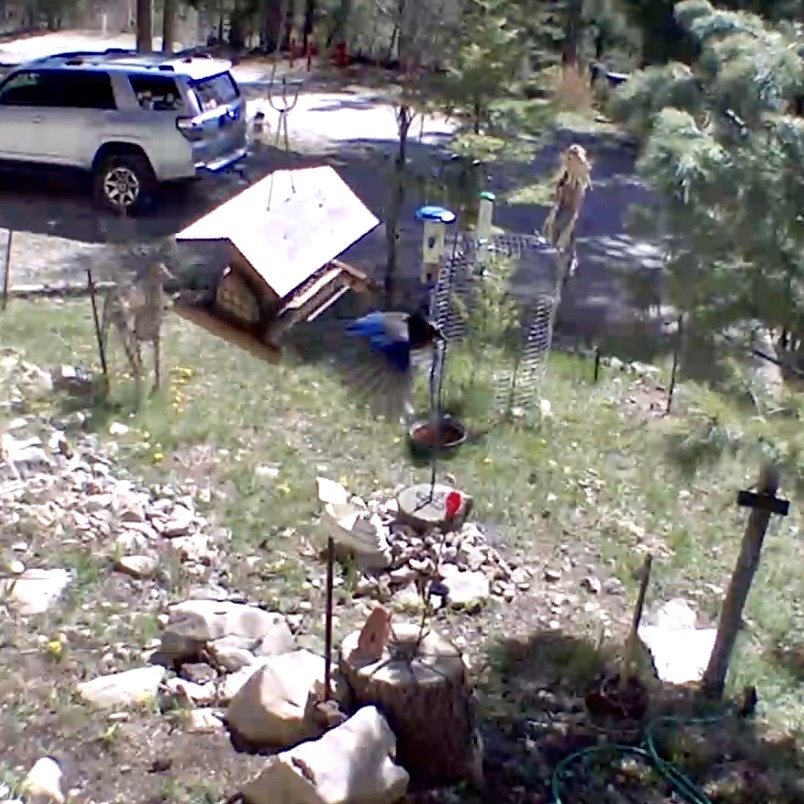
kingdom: Animalia
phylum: Chordata
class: Aves
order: Passeriformes
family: Corvidae
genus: Cyanocitta
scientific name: Cyanocitta stelleri
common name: Steller's jay
